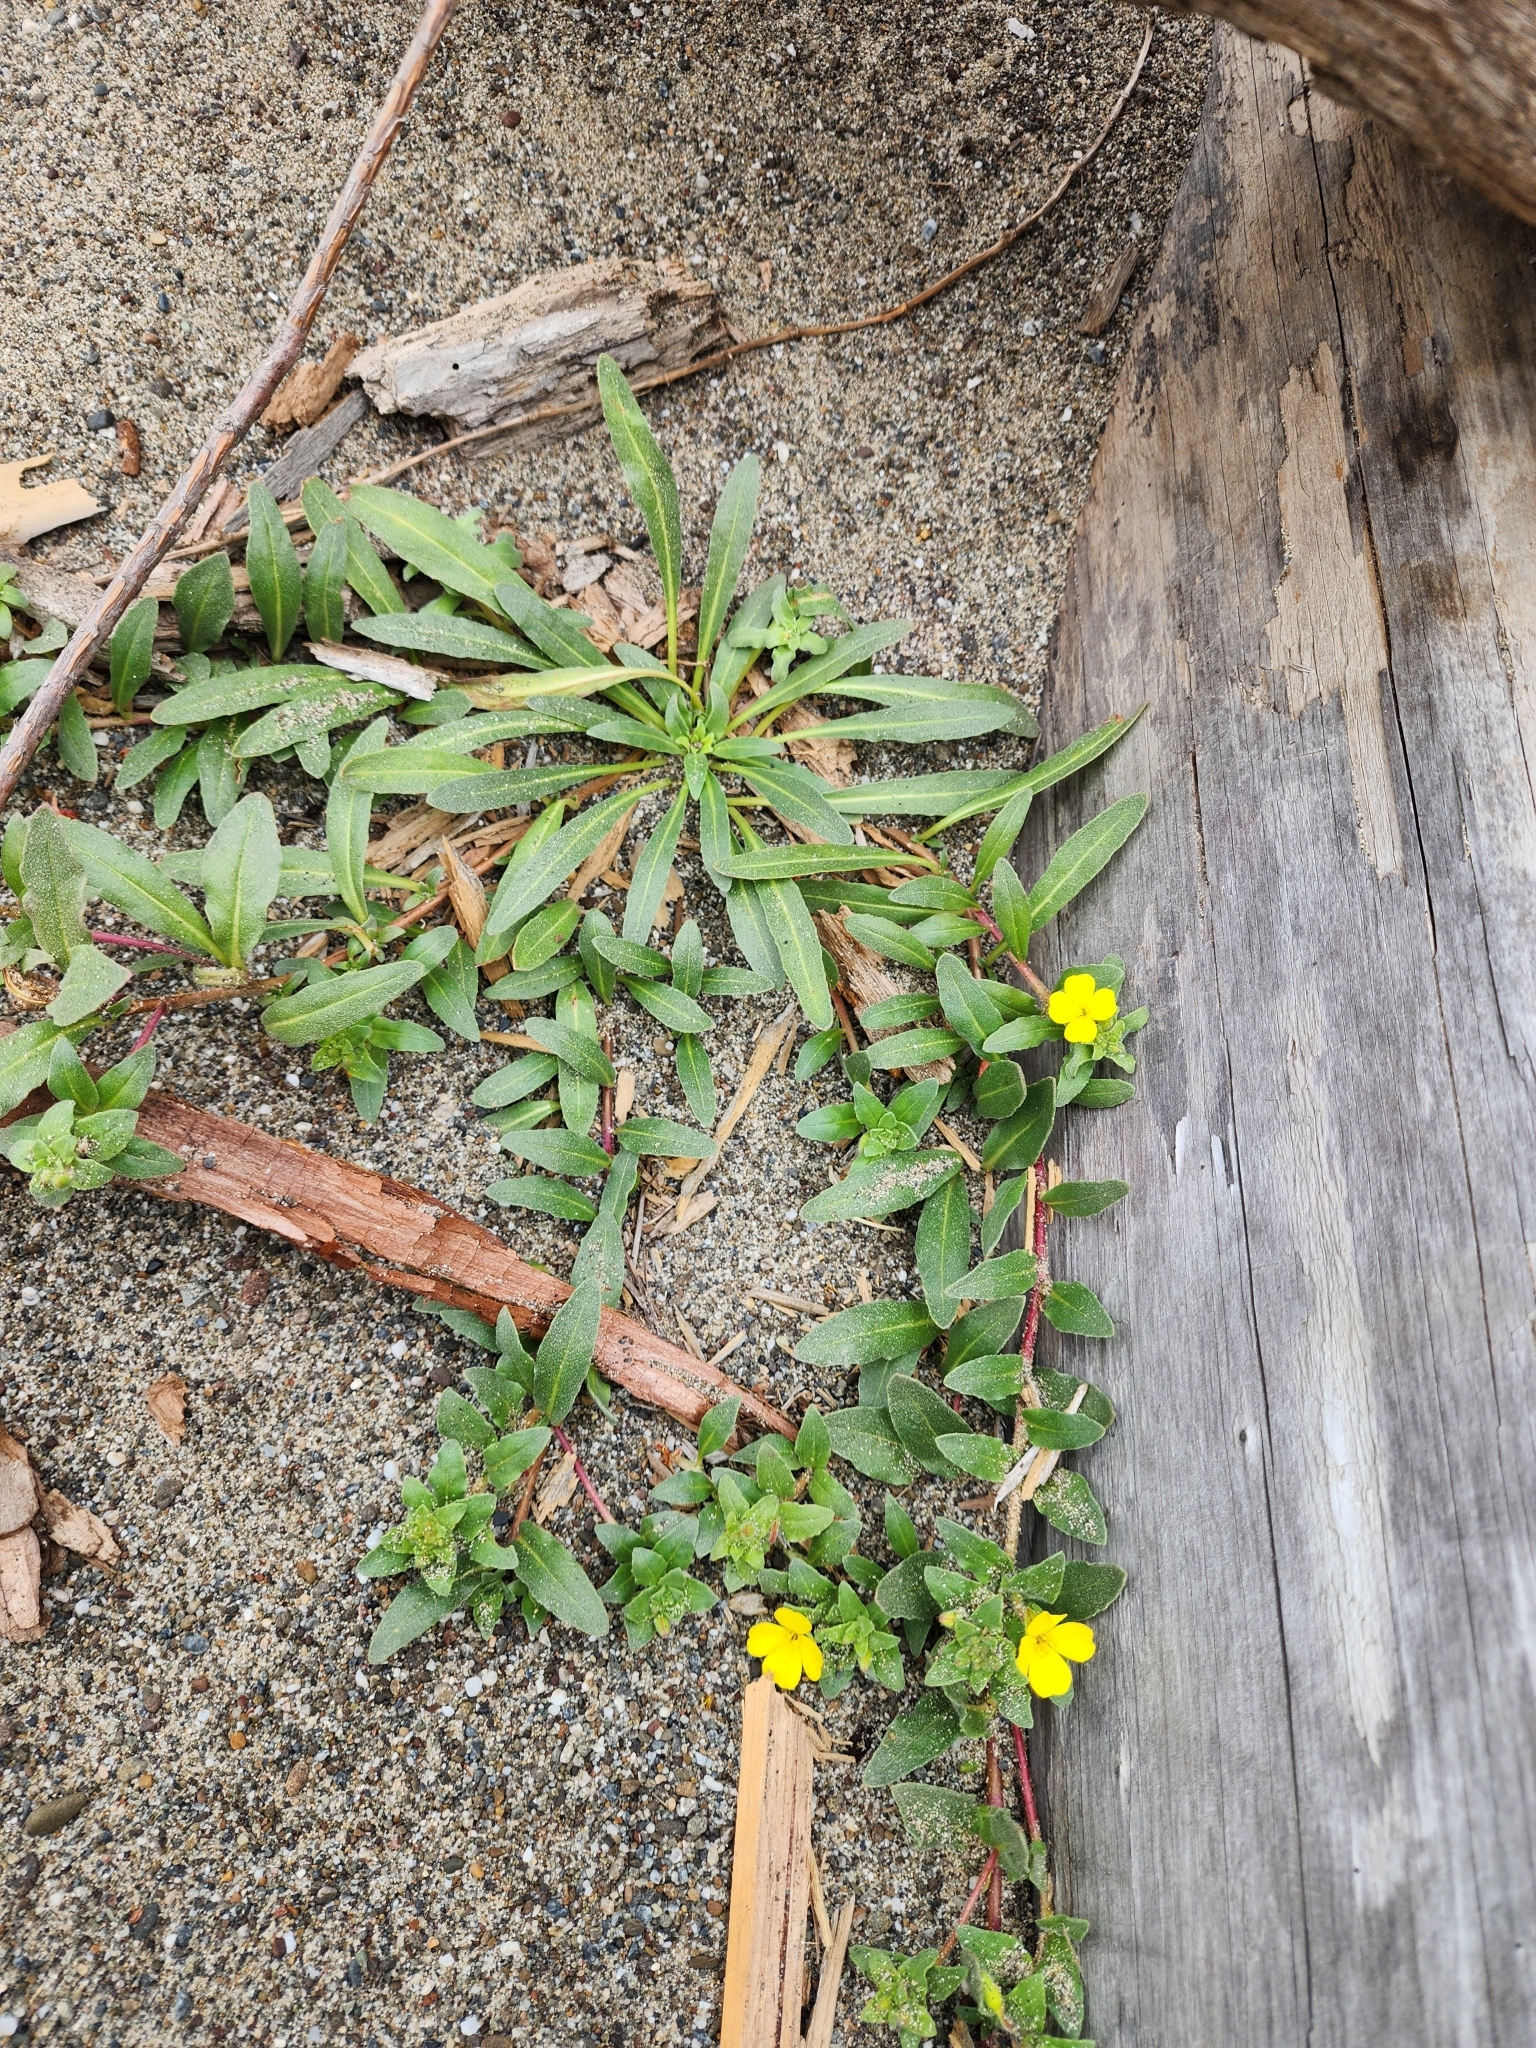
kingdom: Plantae
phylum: Tracheophyta
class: Magnoliopsida
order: Myrtales
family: Onagraceae
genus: Camissoniopsis
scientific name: Camissoniopsis cheiranthifolia
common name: Beach suncup
